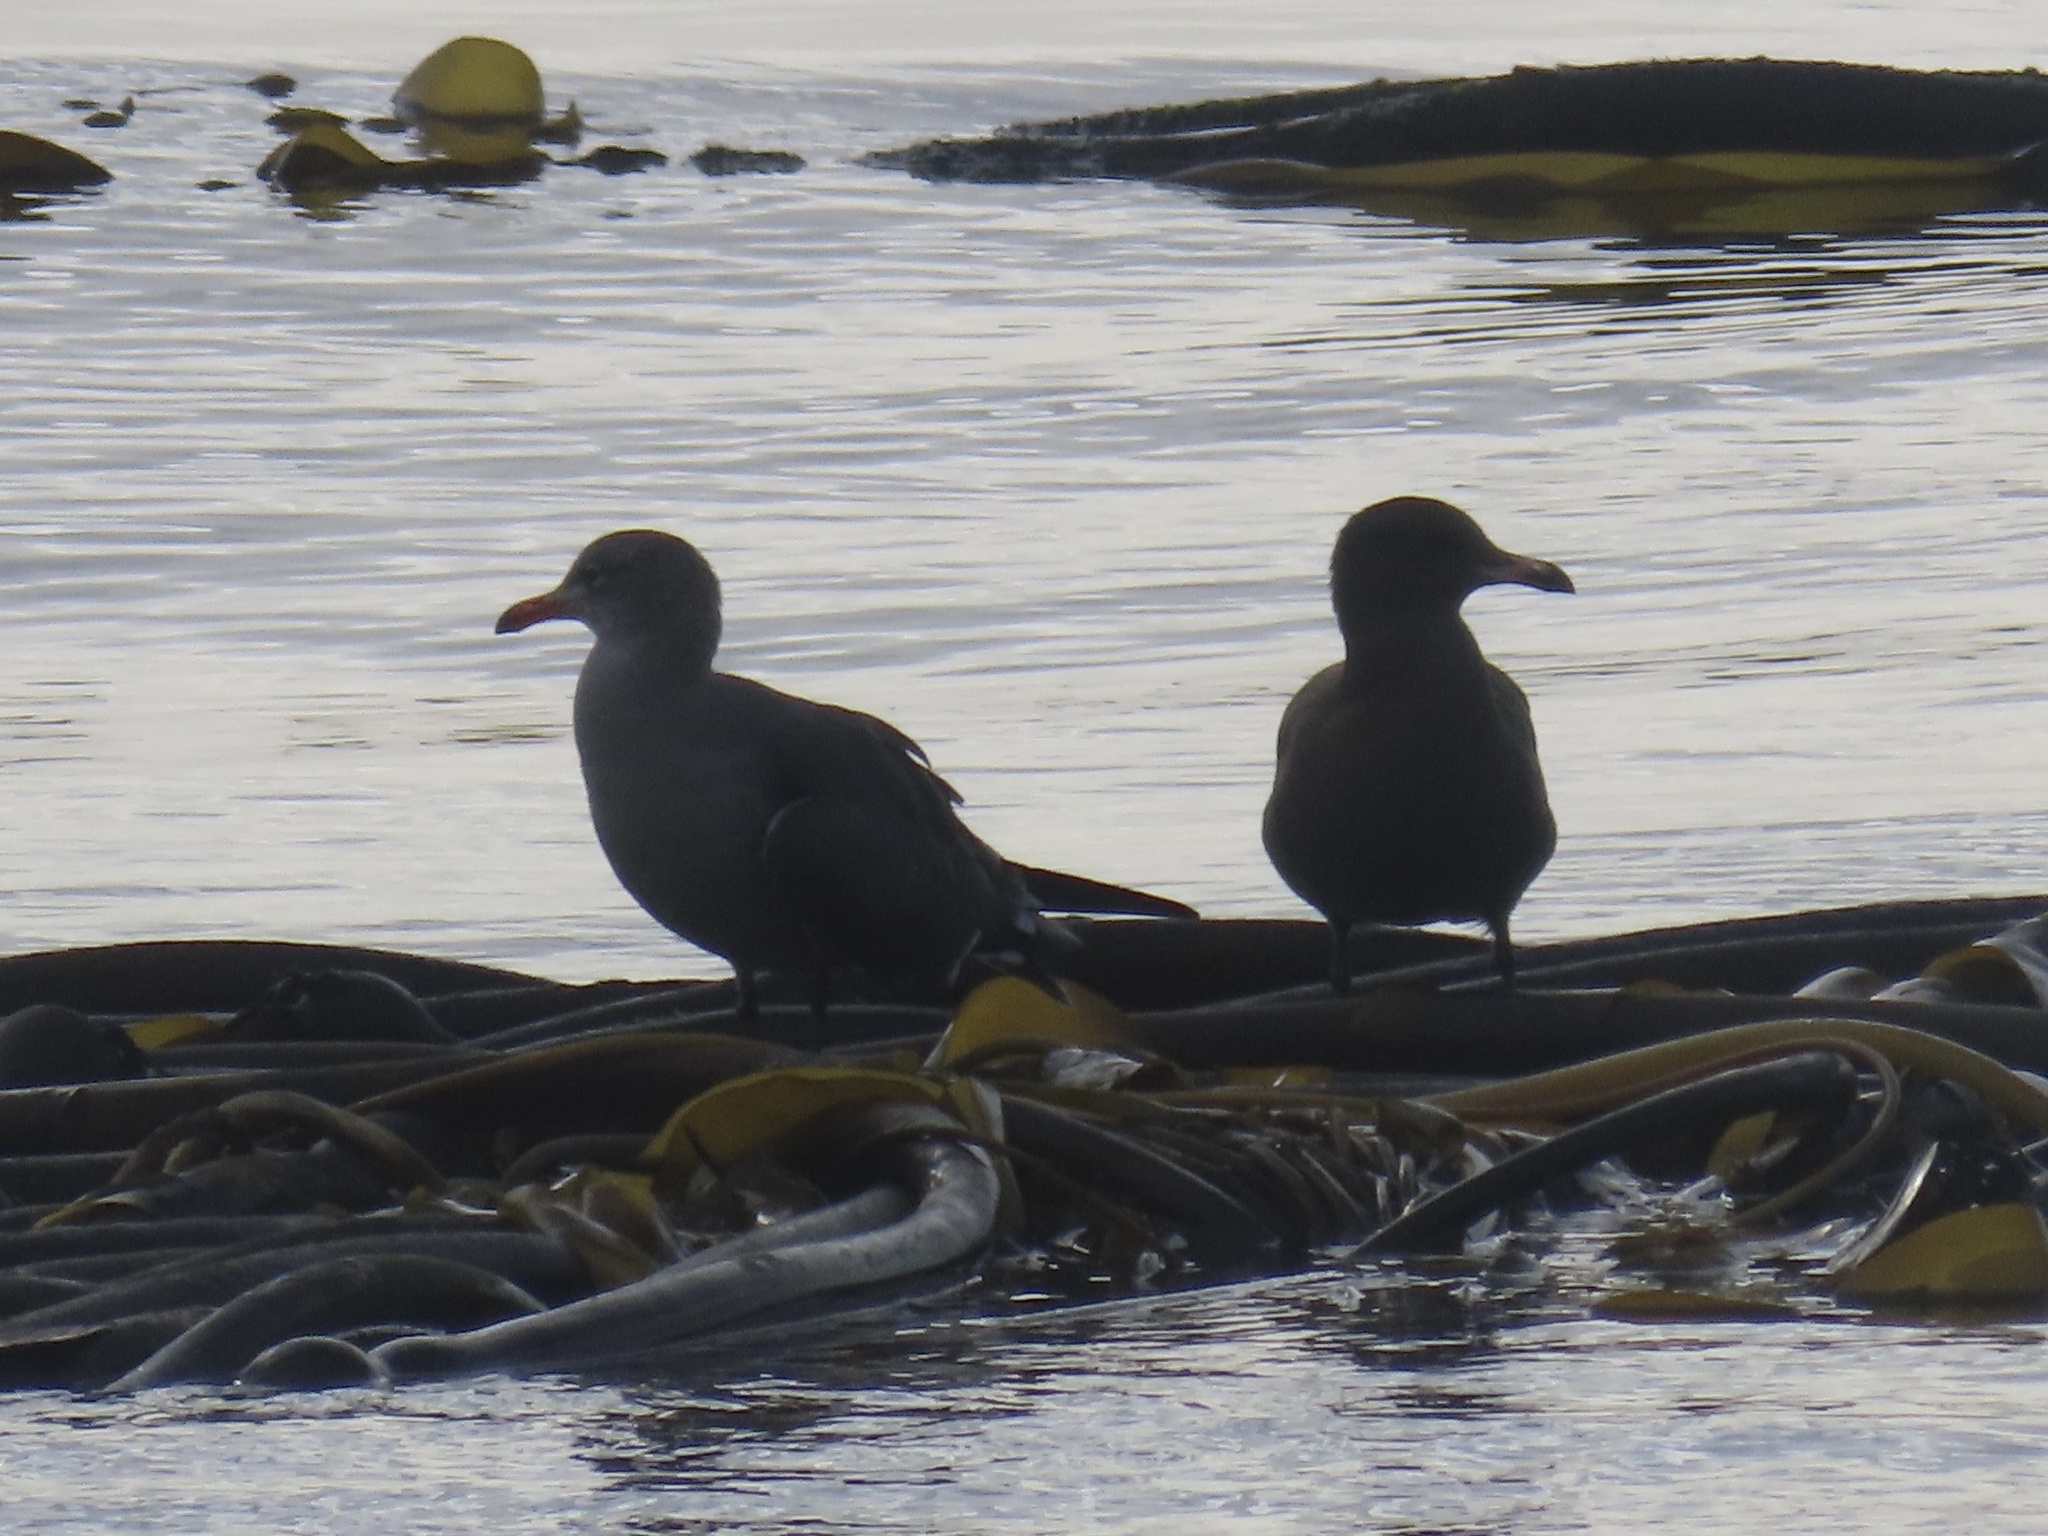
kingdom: Animalia
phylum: Chordata
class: Aves
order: Charadriiformes
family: Laridae
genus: Larus
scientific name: Larus heermanni
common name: Heermann's gull
